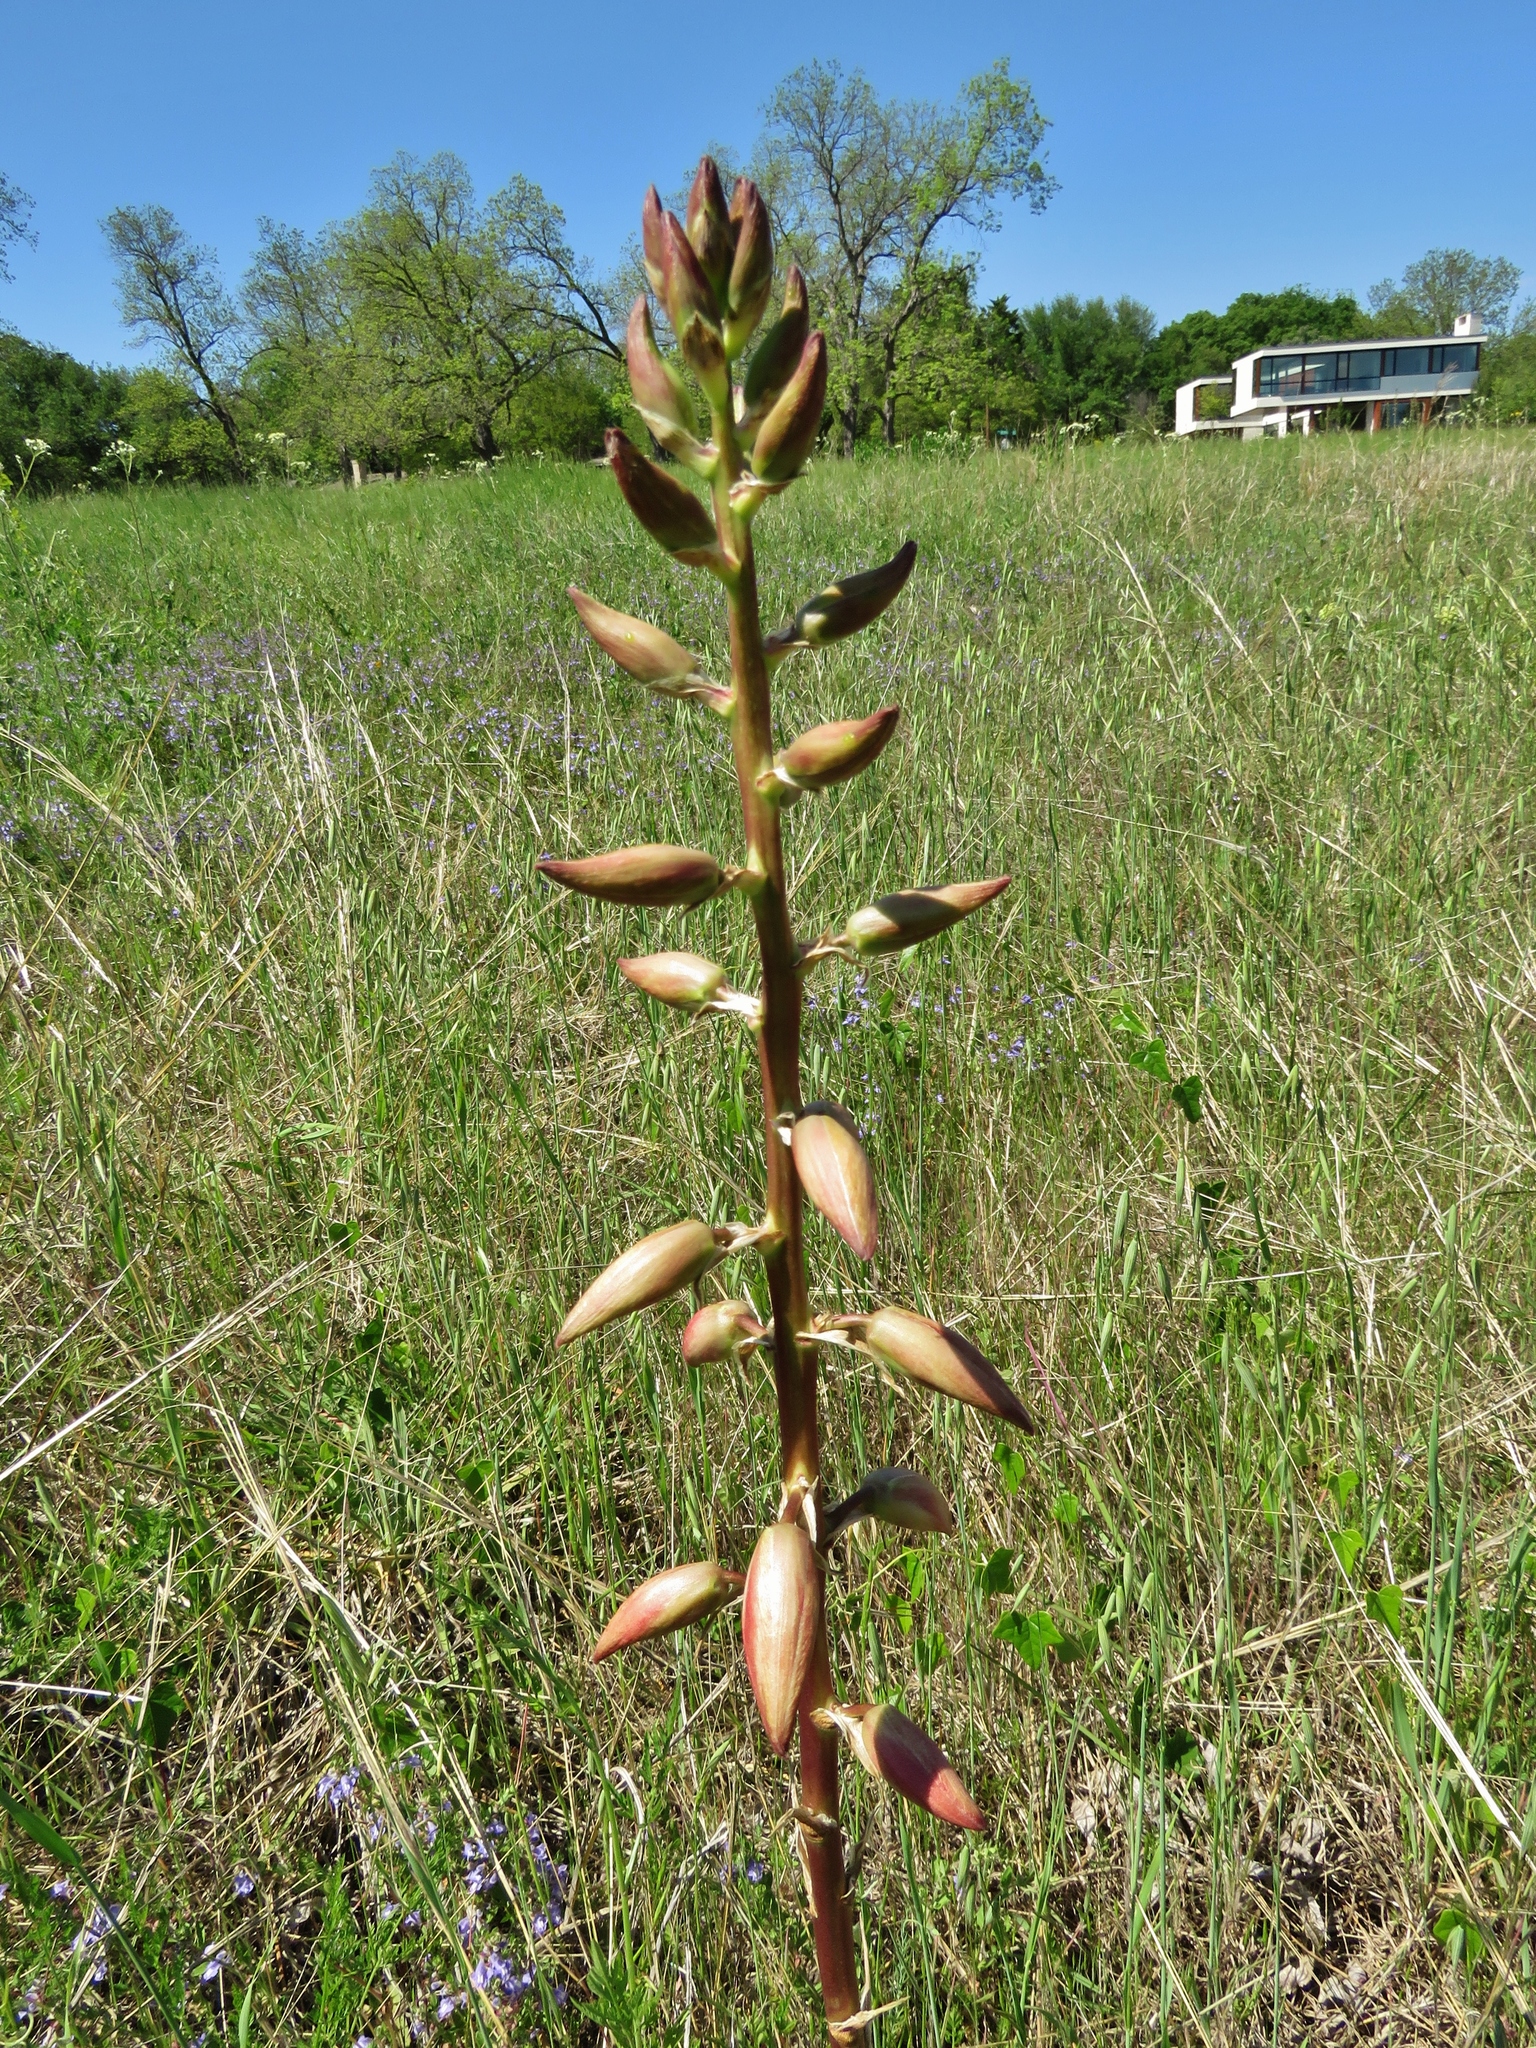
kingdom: Plantae
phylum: Tracheophyta
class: Liliopsida
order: Asparagales
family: Asparagaceae
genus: Yucca
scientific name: Yucca arkansana
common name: Arkansas yucca
